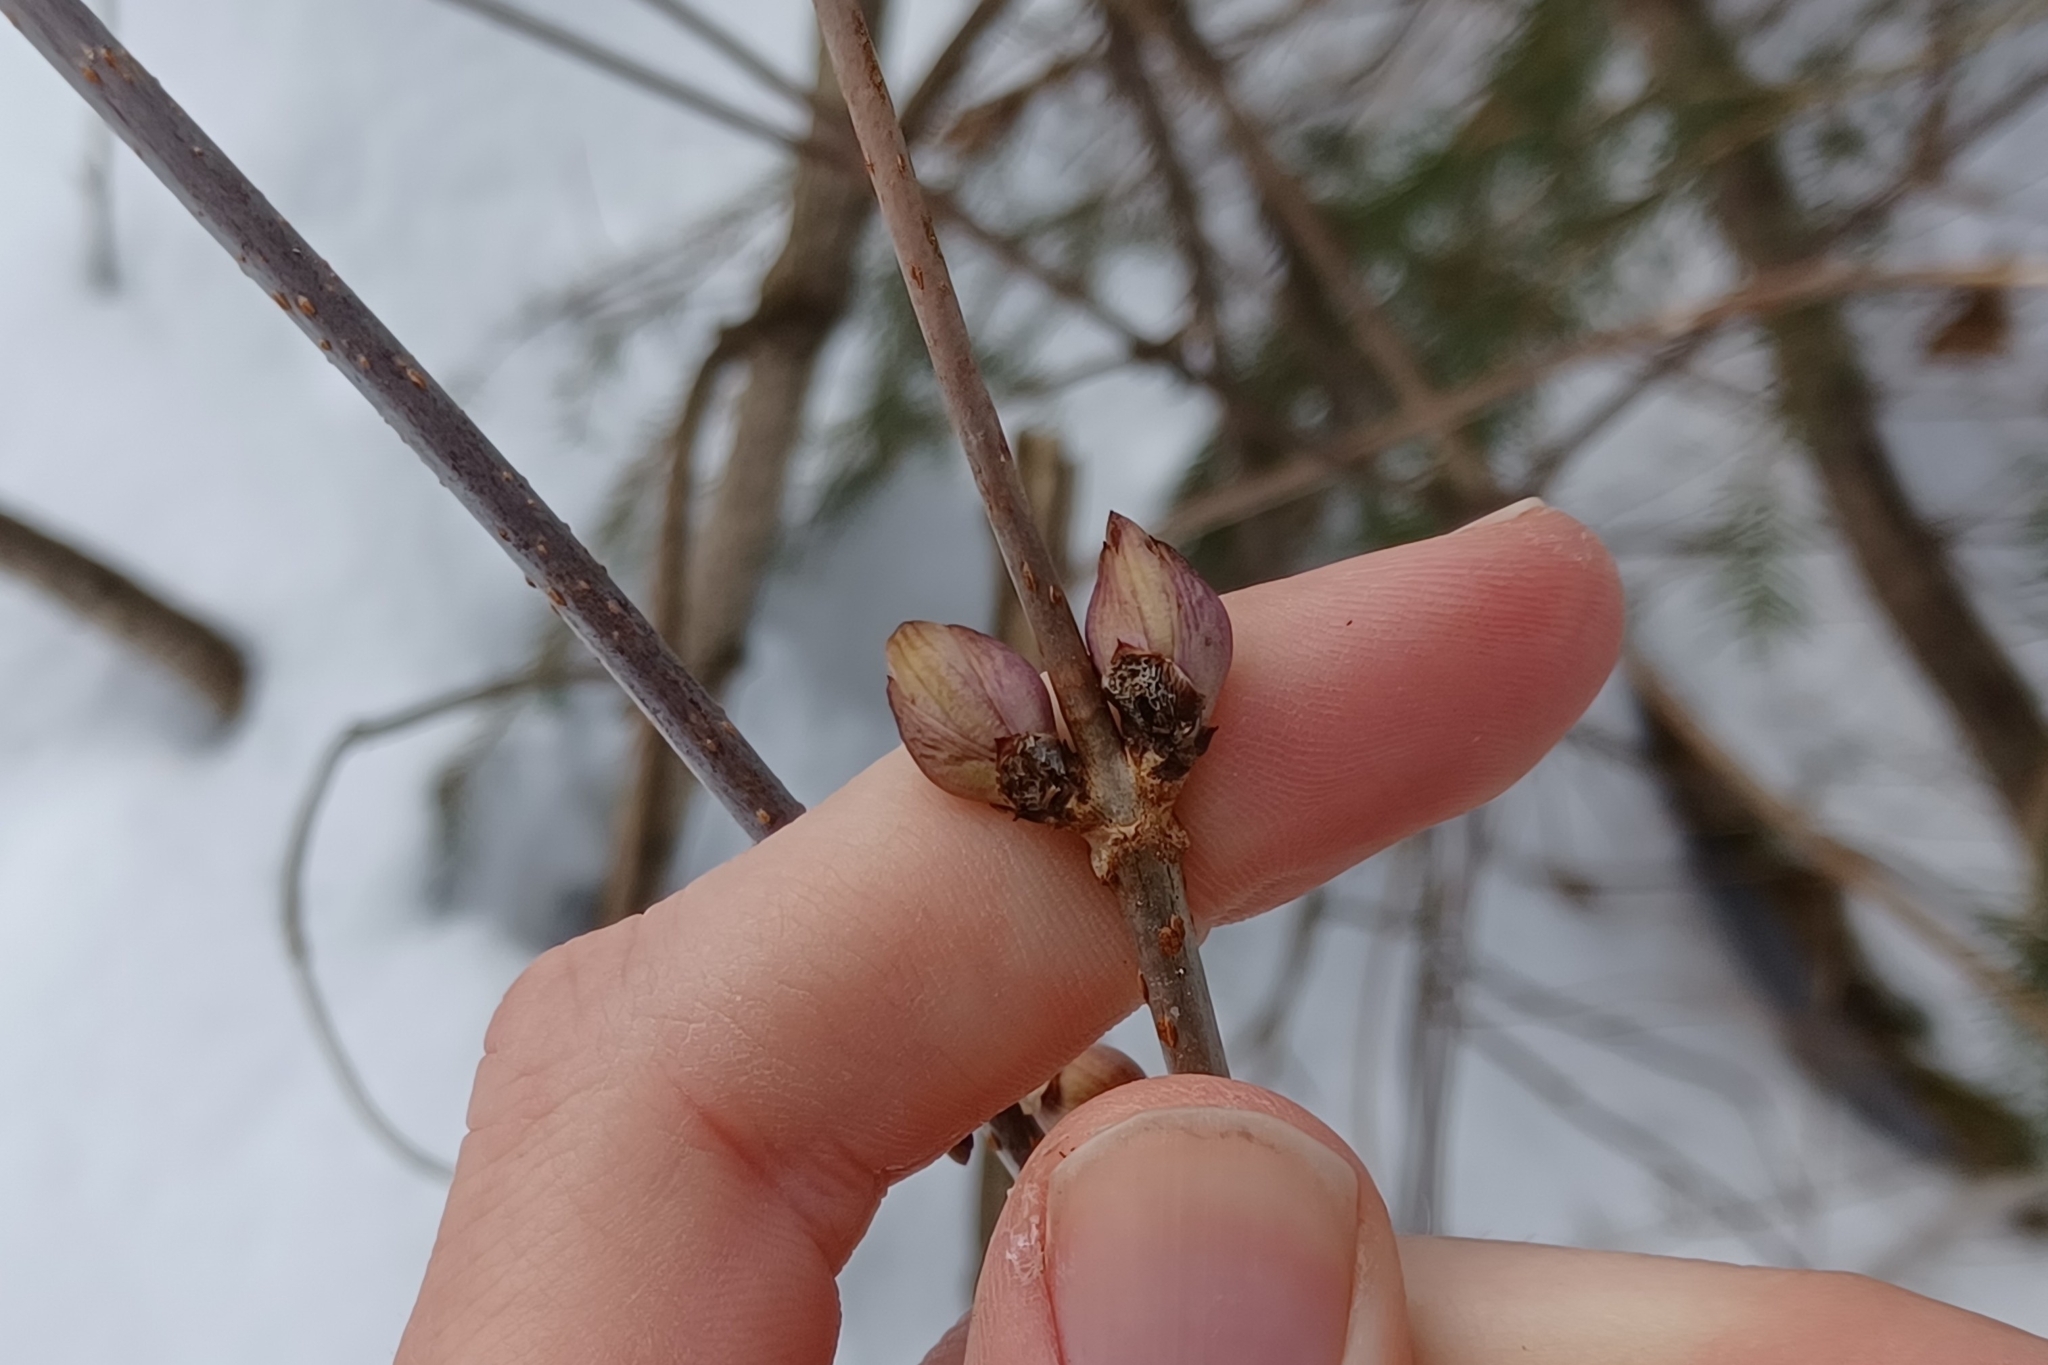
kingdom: Plantae
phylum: Tracheophyta
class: Magnoliopsida
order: Dipsacales
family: Viburnaceae
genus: Sambucus
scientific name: Sambucus racemosa
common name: Red-berried elder
